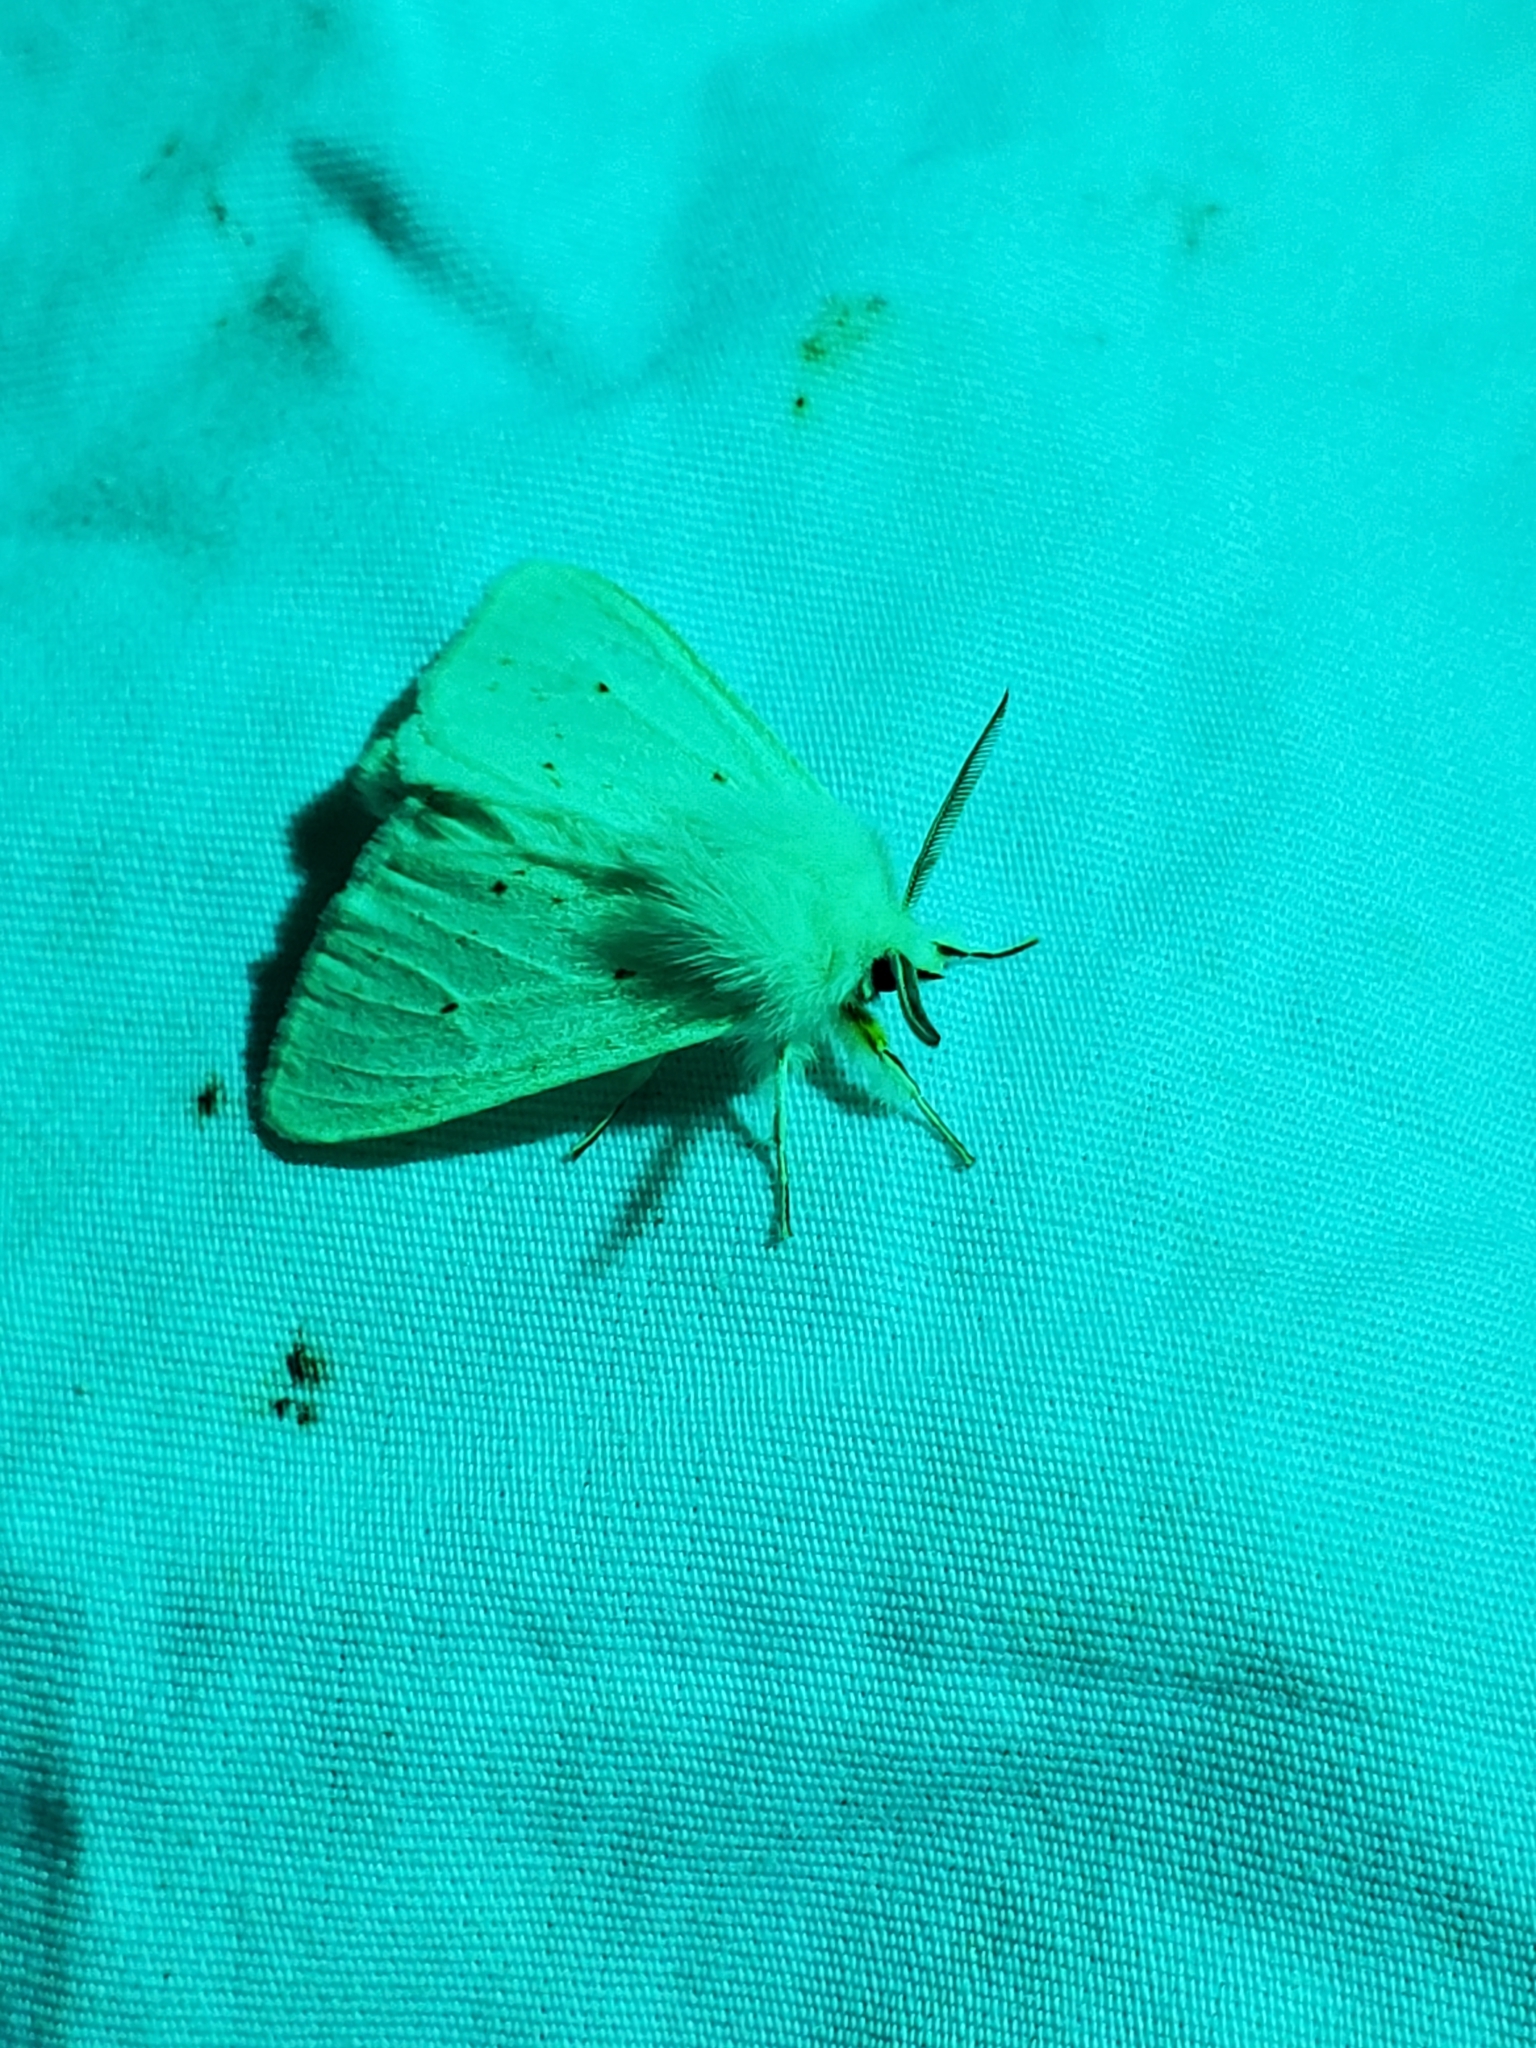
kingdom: Animalia
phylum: Arthropoda
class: Insecta
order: Lepidoptera
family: Erebidae
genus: Spilosoma
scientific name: Spilosoma congrua
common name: Agreeable tiger moth
